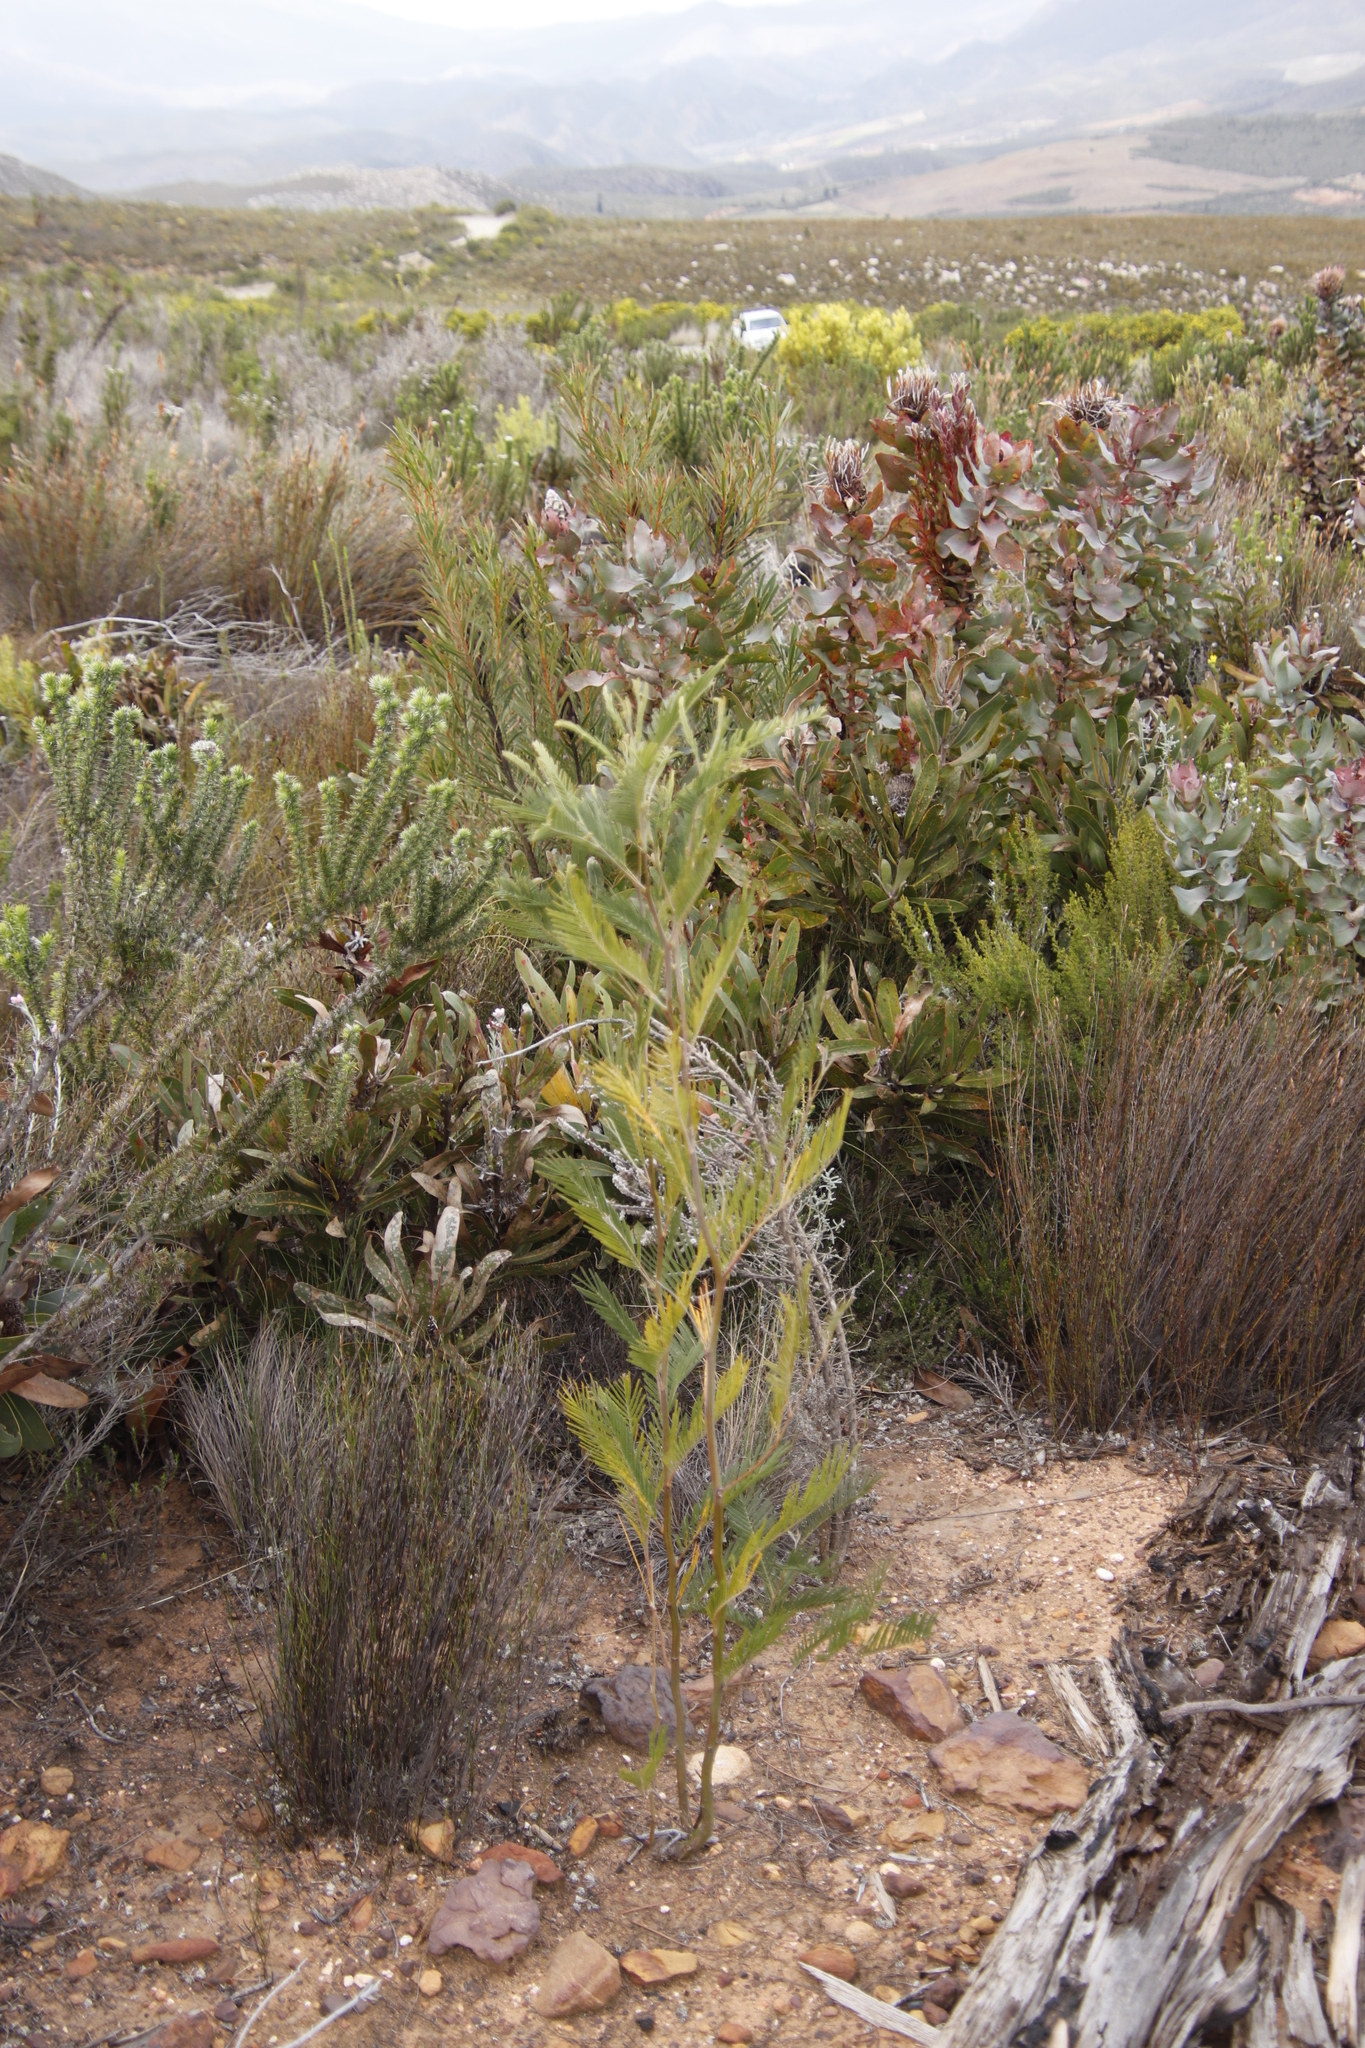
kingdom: Plantae
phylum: Tracheophyta
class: Magnoliopsida
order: Fabales
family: Fabaceae
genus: Acacia
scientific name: Acacia mearnsii
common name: Black wattle
